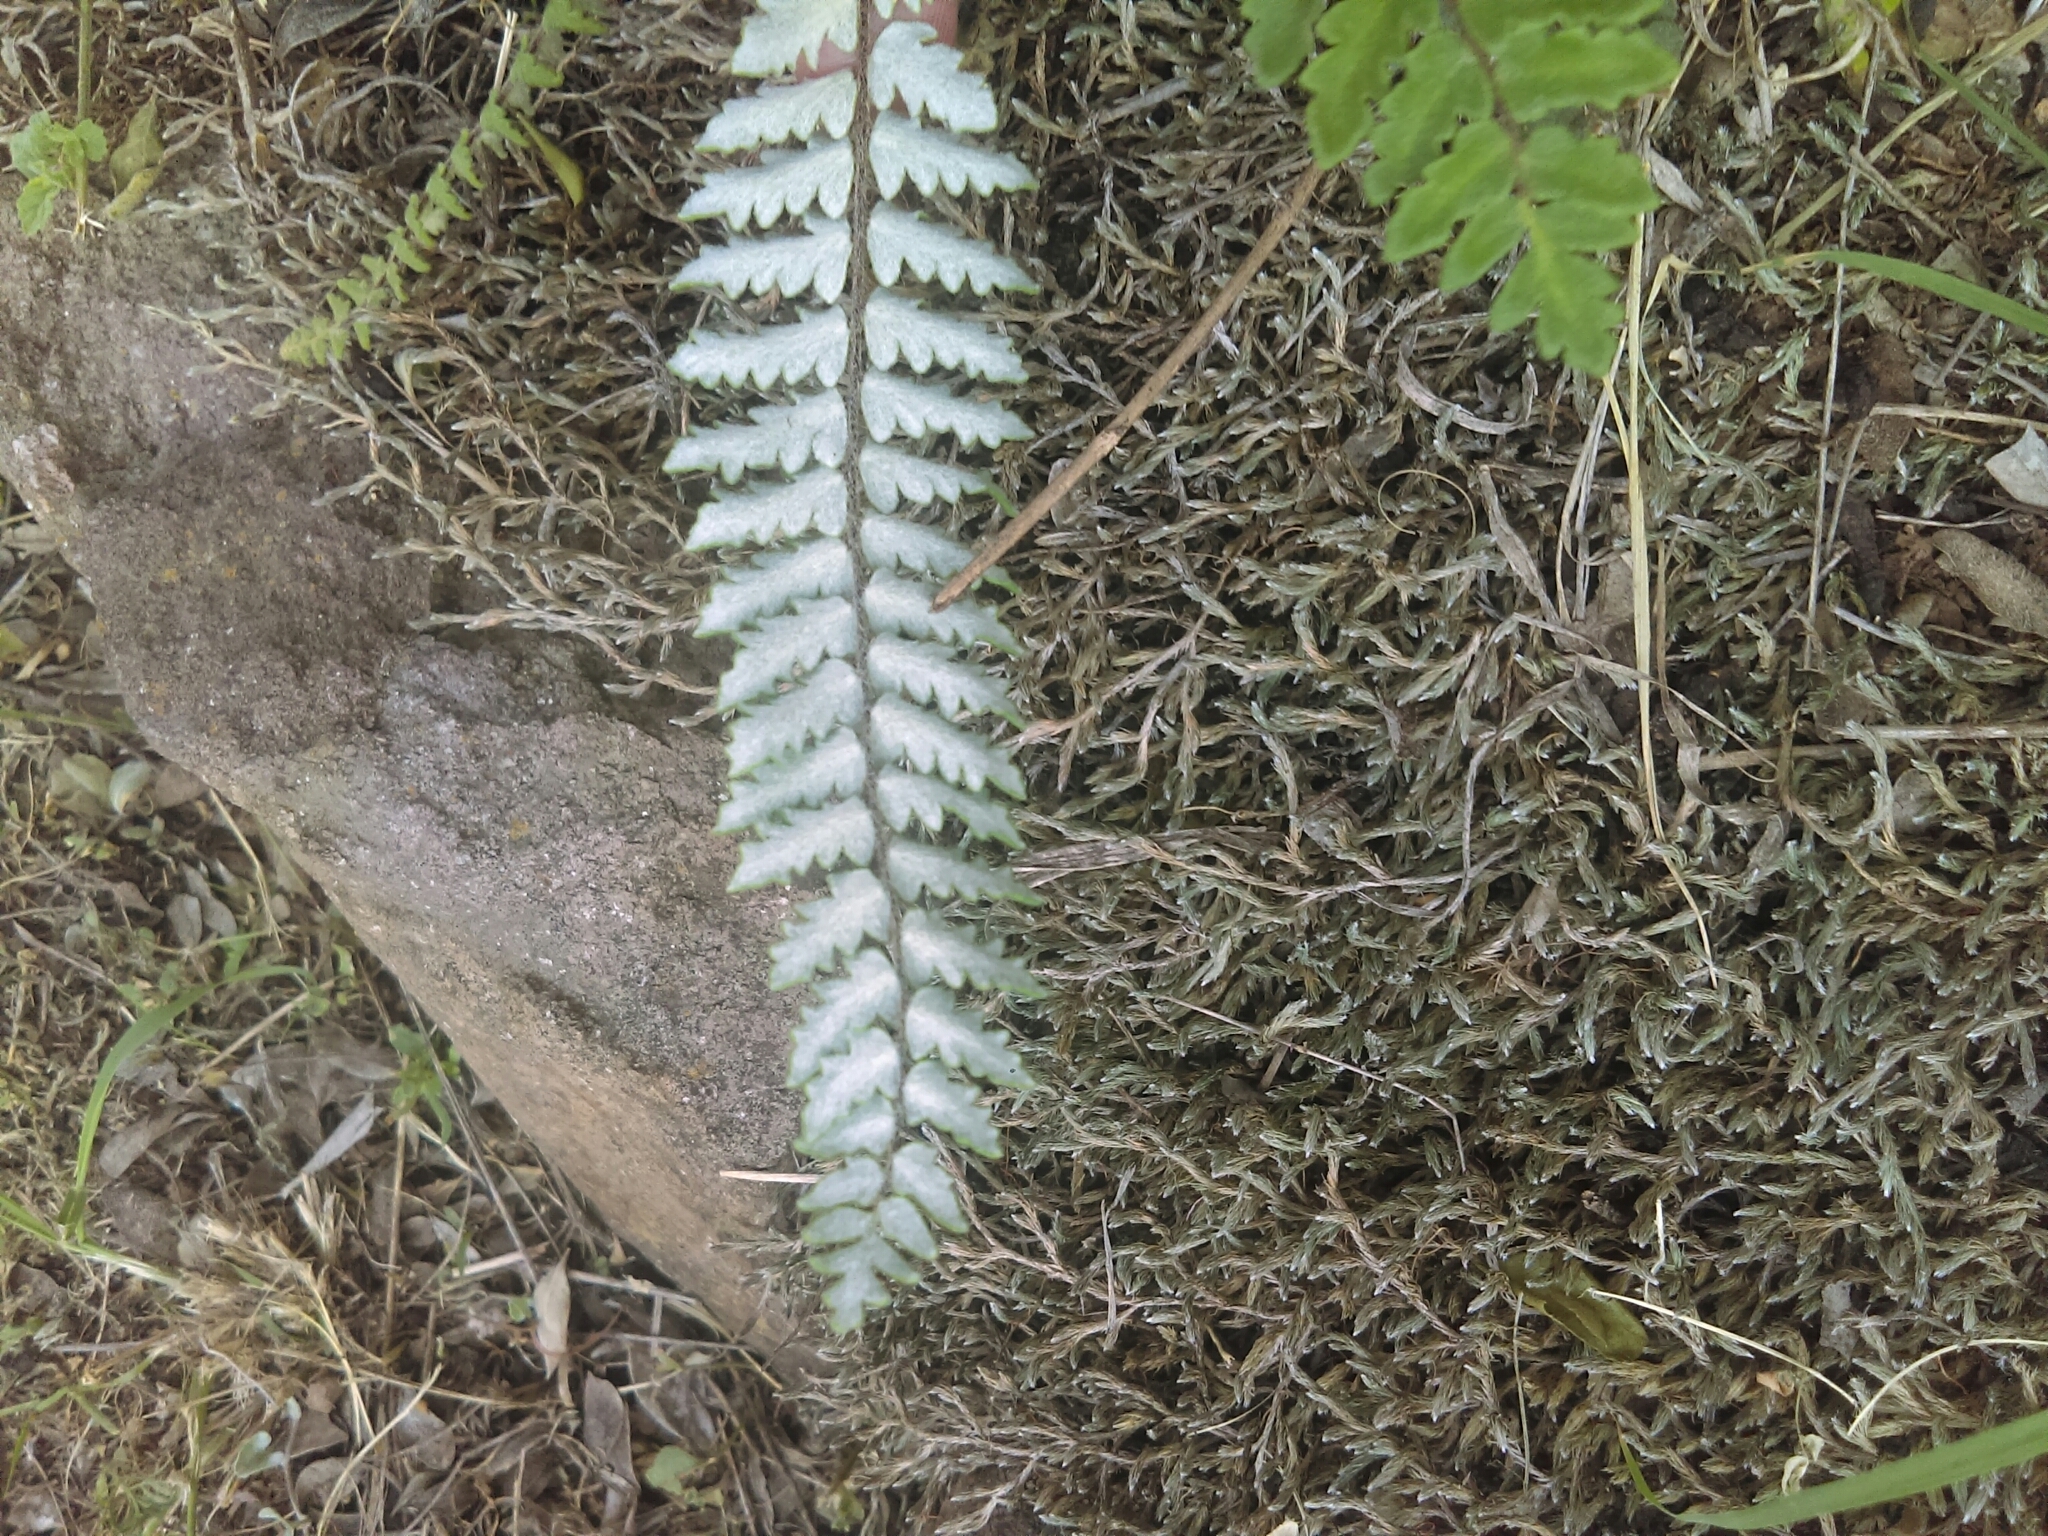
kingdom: Plantae
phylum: Tracheophyta
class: Polypodiopsida
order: Polypodiales
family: Pteridaceae
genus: Myriopteris
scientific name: Myriopteris aurea
